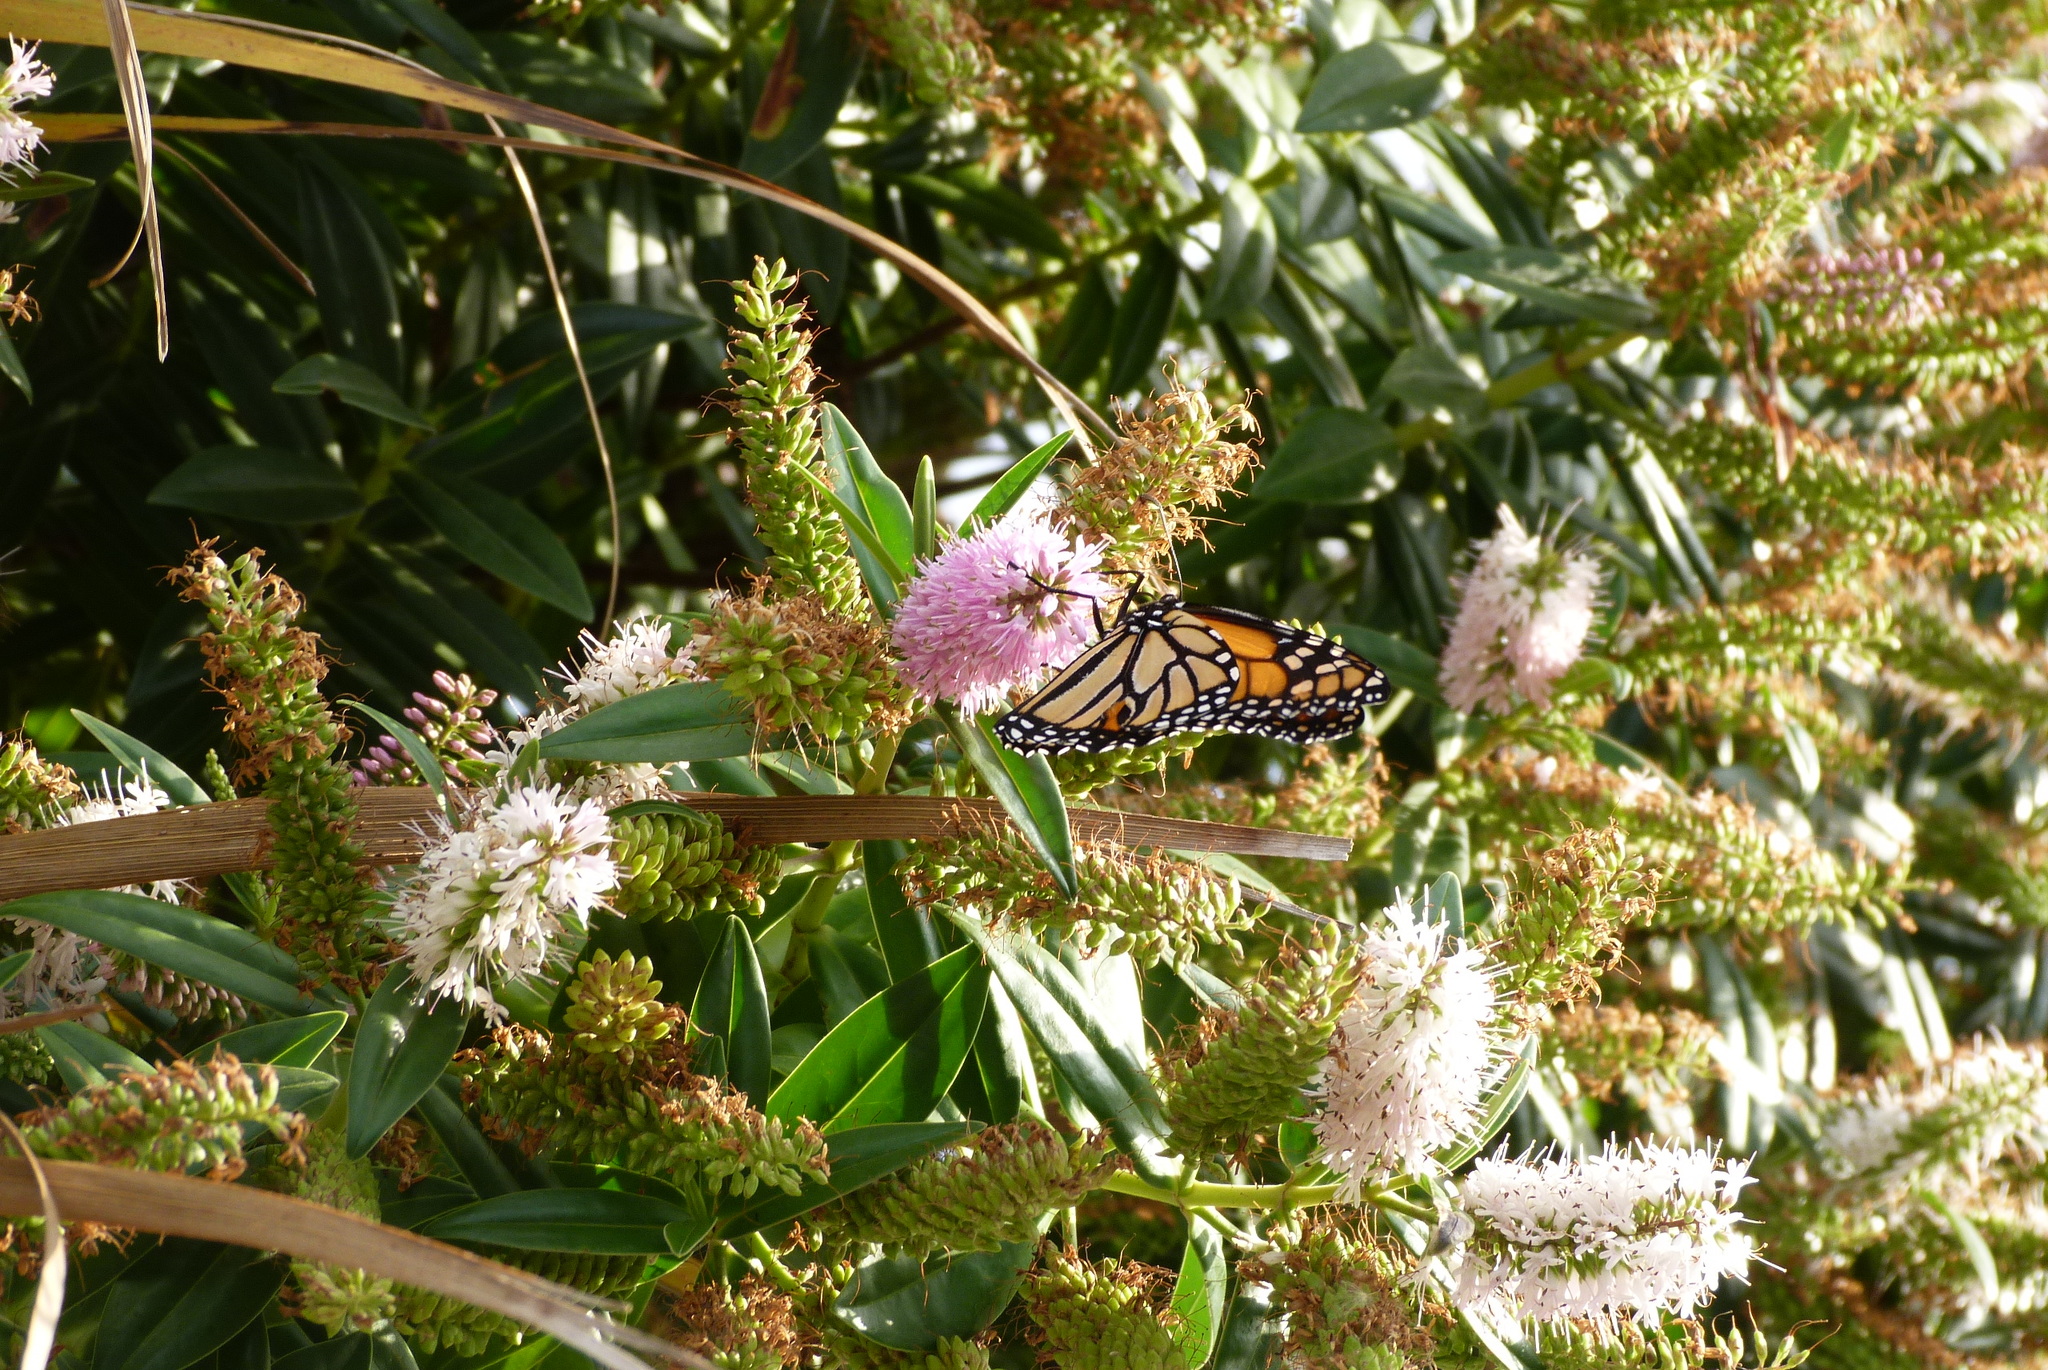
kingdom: Animalia
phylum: Arthropoda
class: Insecta
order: Lepidoptera
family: Nymphalidae
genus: Danaus
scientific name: Danaus plexippus
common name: Monarch
